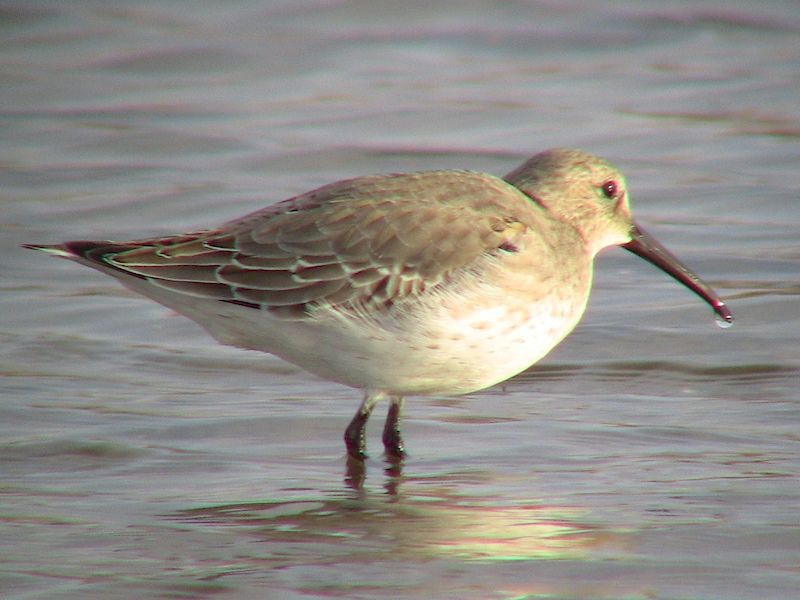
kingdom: Animalia
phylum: Chordata
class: Aves
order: Charadriiformes
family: Scolopacidae
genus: Calidris
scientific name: Calidris alpina
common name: Dunlin
